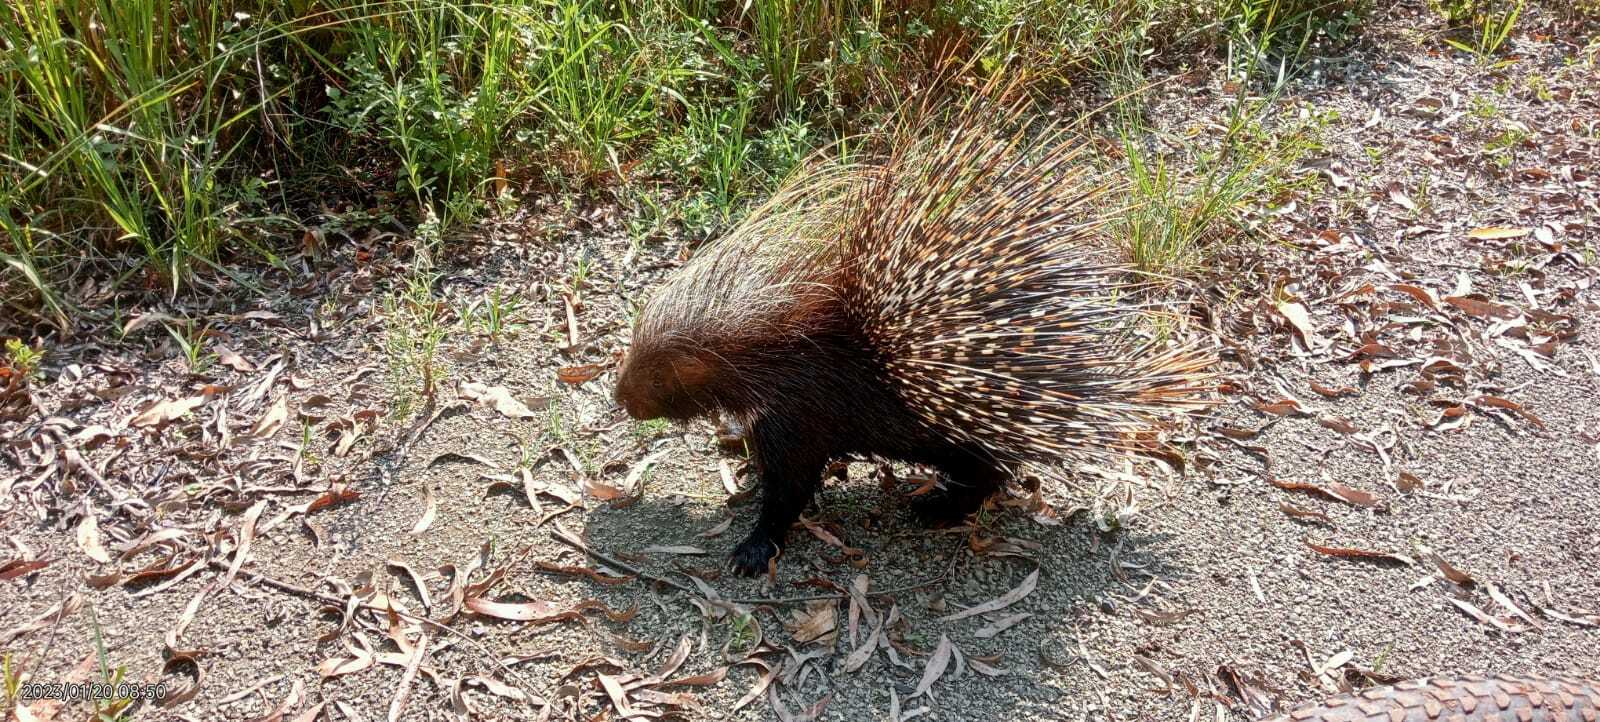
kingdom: Animalia
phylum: Chordata
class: Mammalia
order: Rodentia
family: Hystricidae
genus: Hystrix
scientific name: Hystrix africaeaustralis
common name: Cape porcupine
